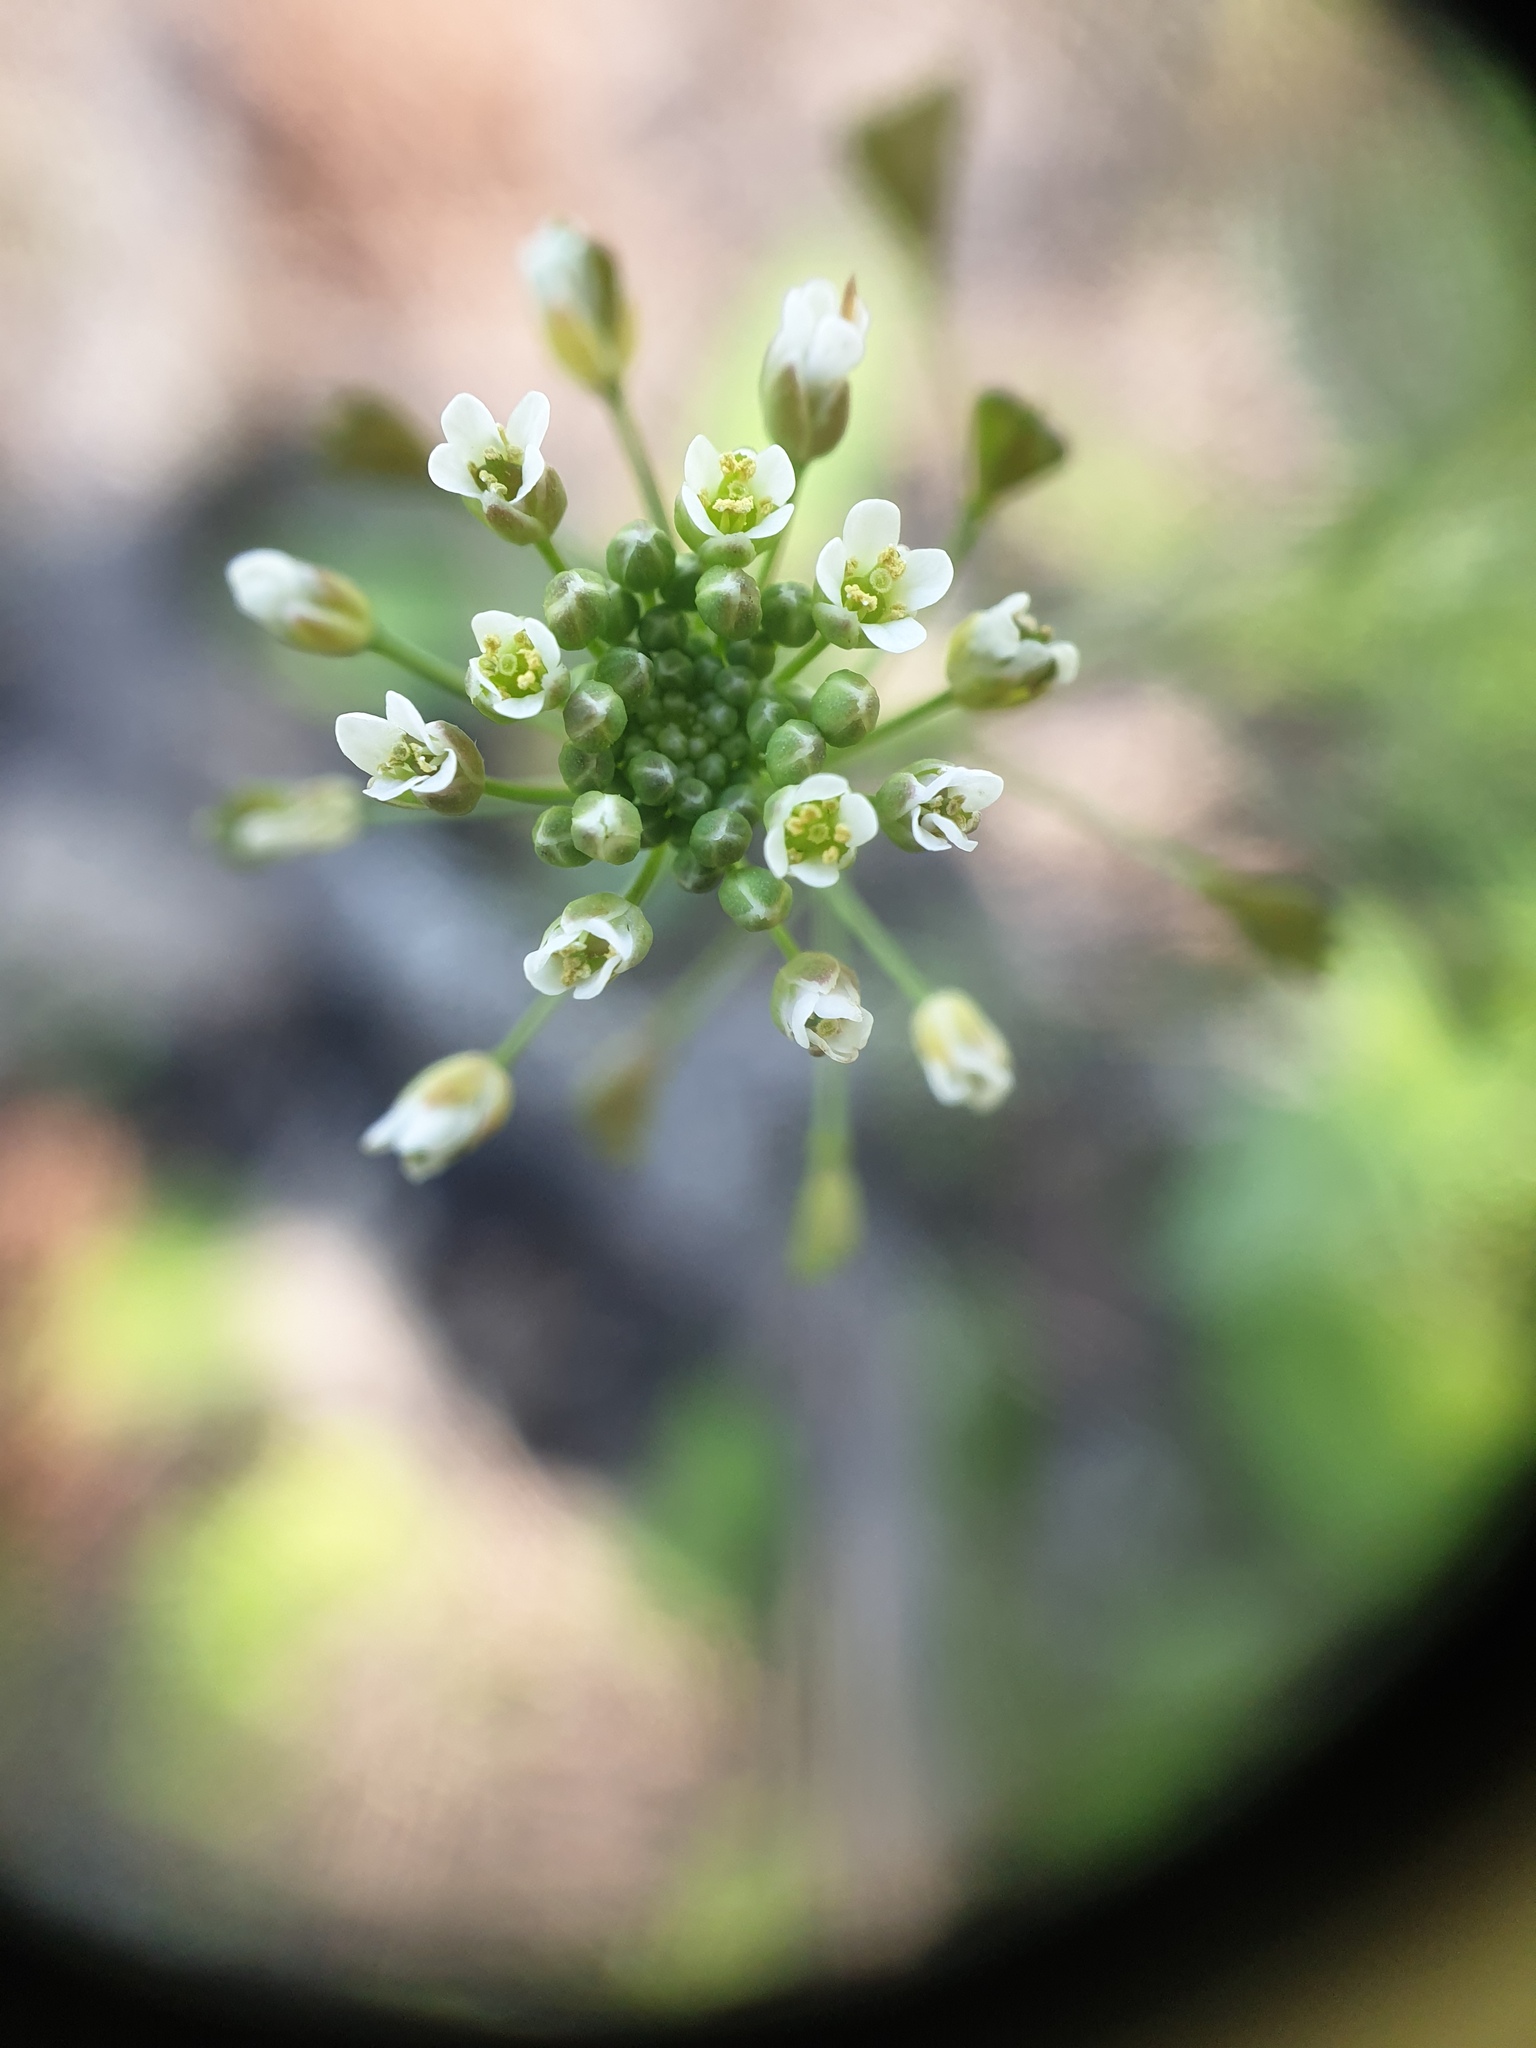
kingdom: Plantae
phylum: Tracheophyta
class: Magnoliopsida
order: Brassicales
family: Brassicaceae
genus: Capsella
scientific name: Capsella bursa-pastoris
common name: Shepherd's purse
